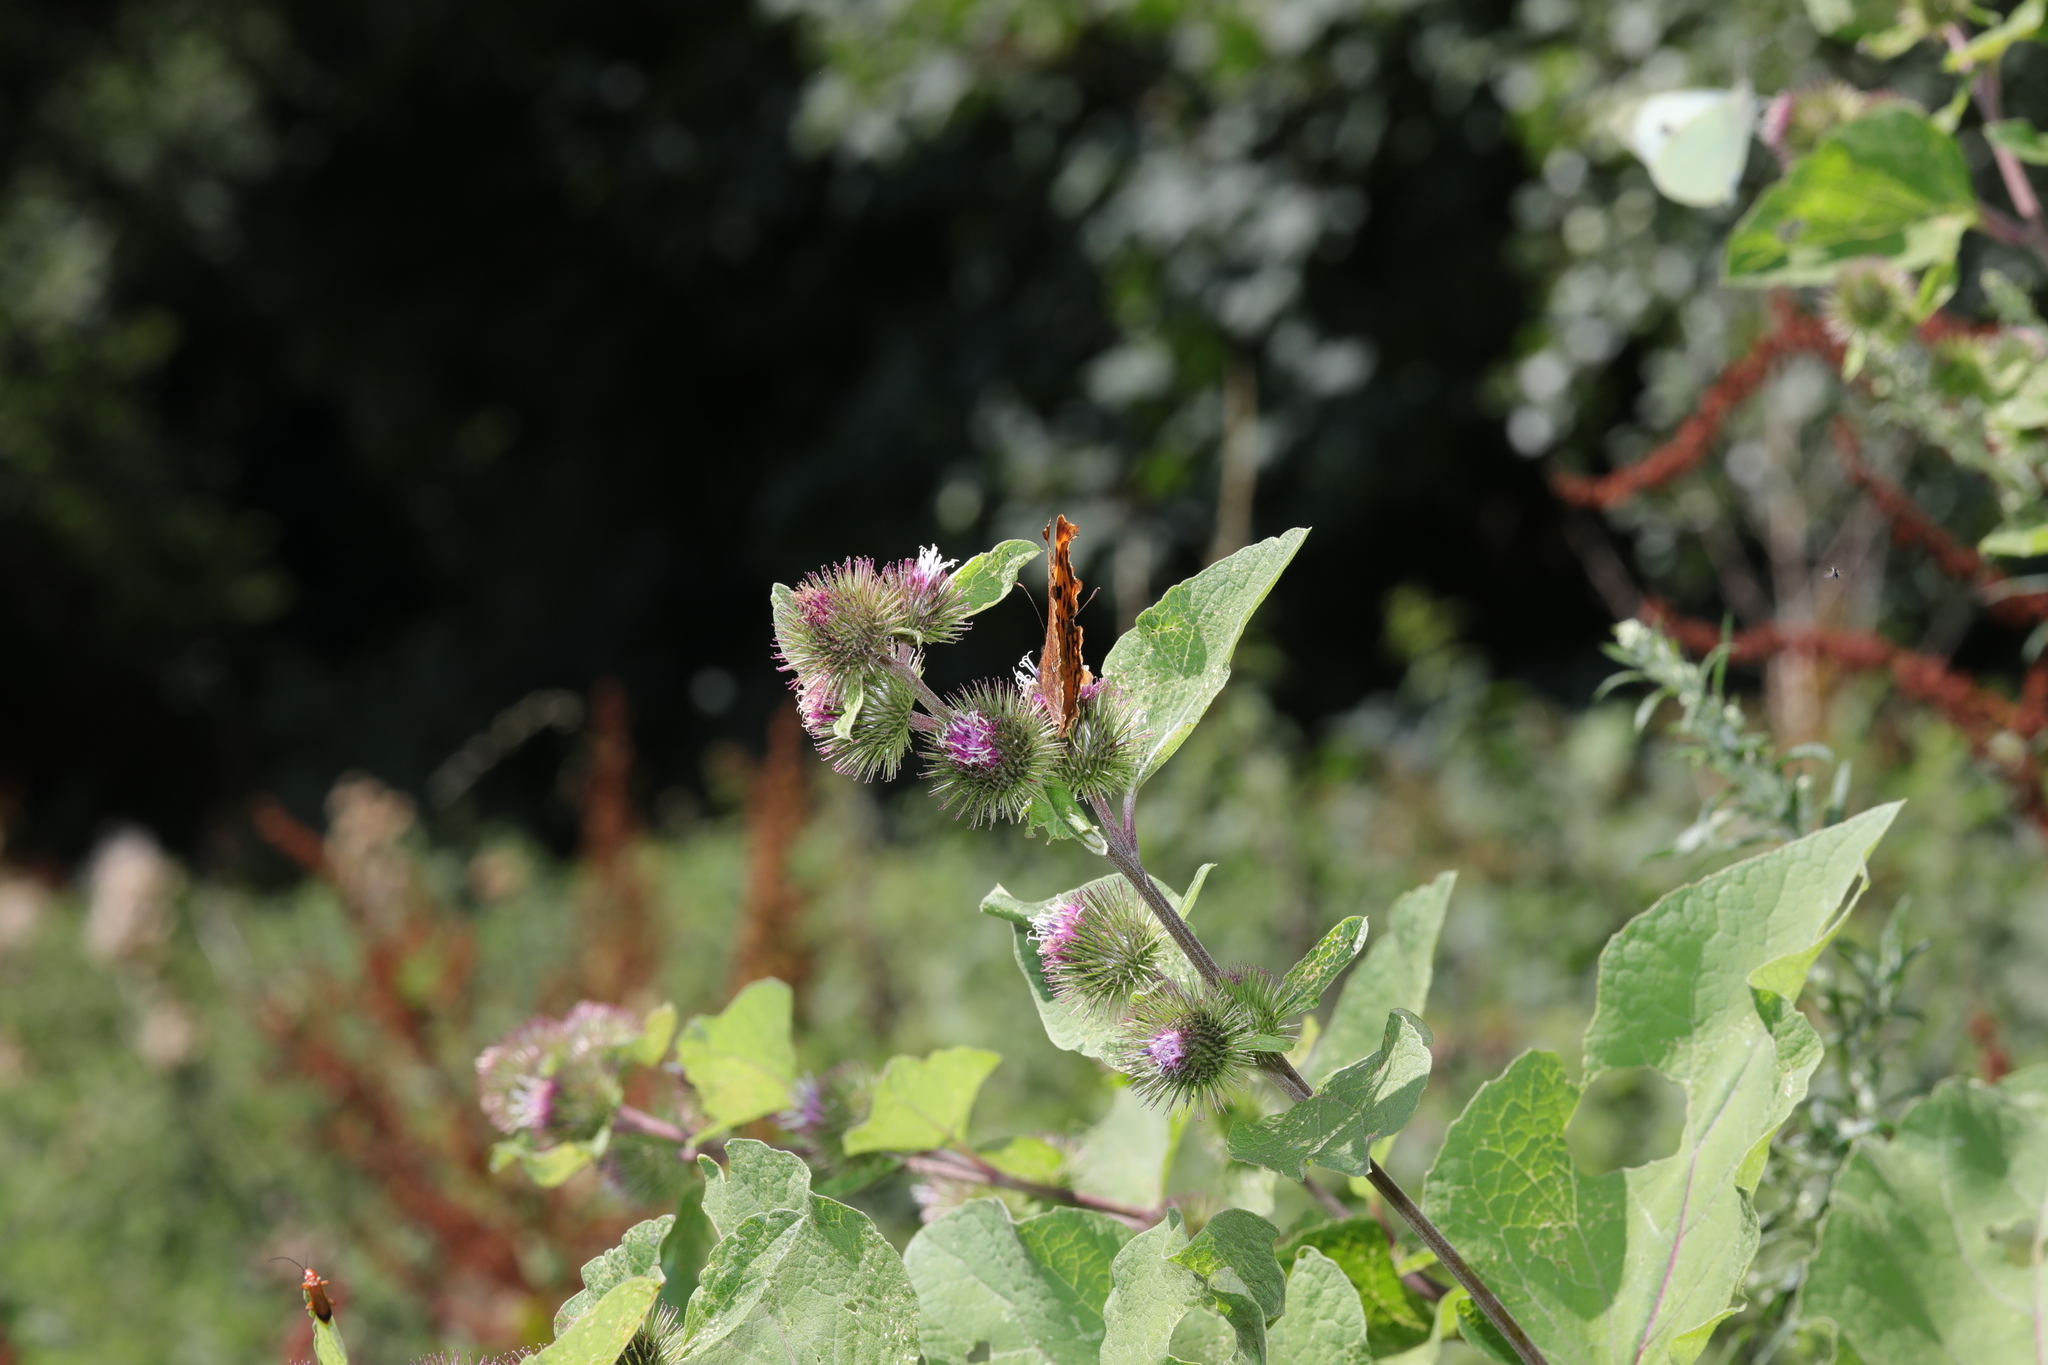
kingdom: Plantae
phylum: Tracheophyta
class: Magnoliopsida
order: Asterales
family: Asteraceae
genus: Arctium
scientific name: Arctium minus
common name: Lesser burdock
